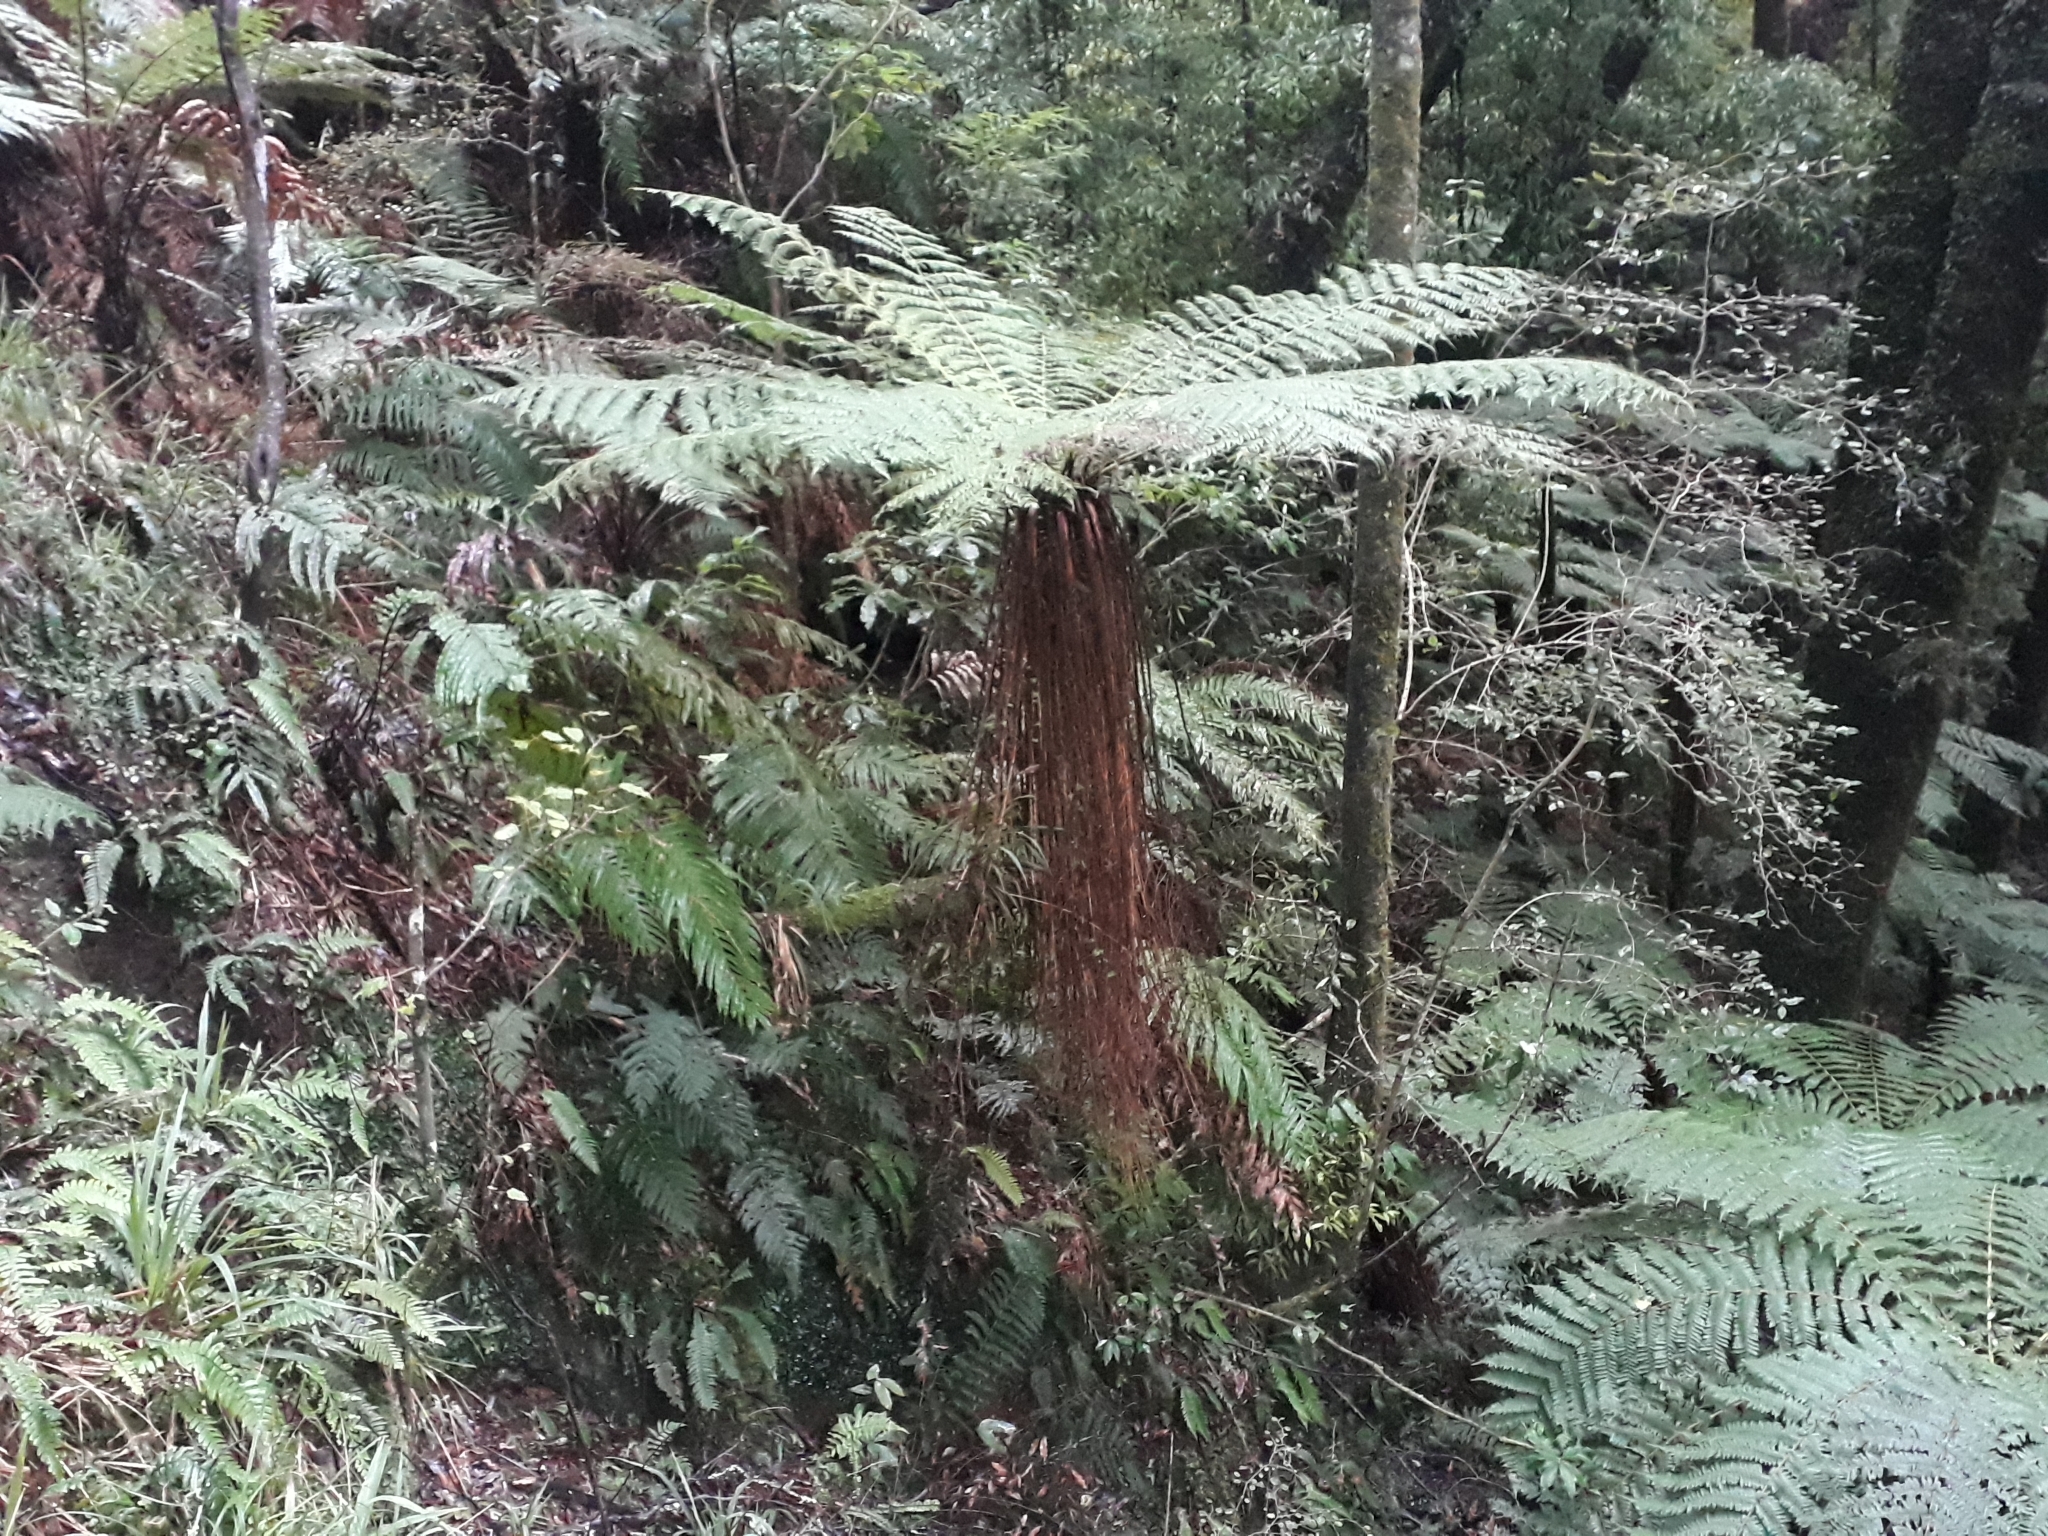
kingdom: Plantae
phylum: Tracheophyta
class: Polypodiopsida
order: Cyatheales
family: Cyatheaceae
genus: Alsophila
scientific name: Alsophila smithii
